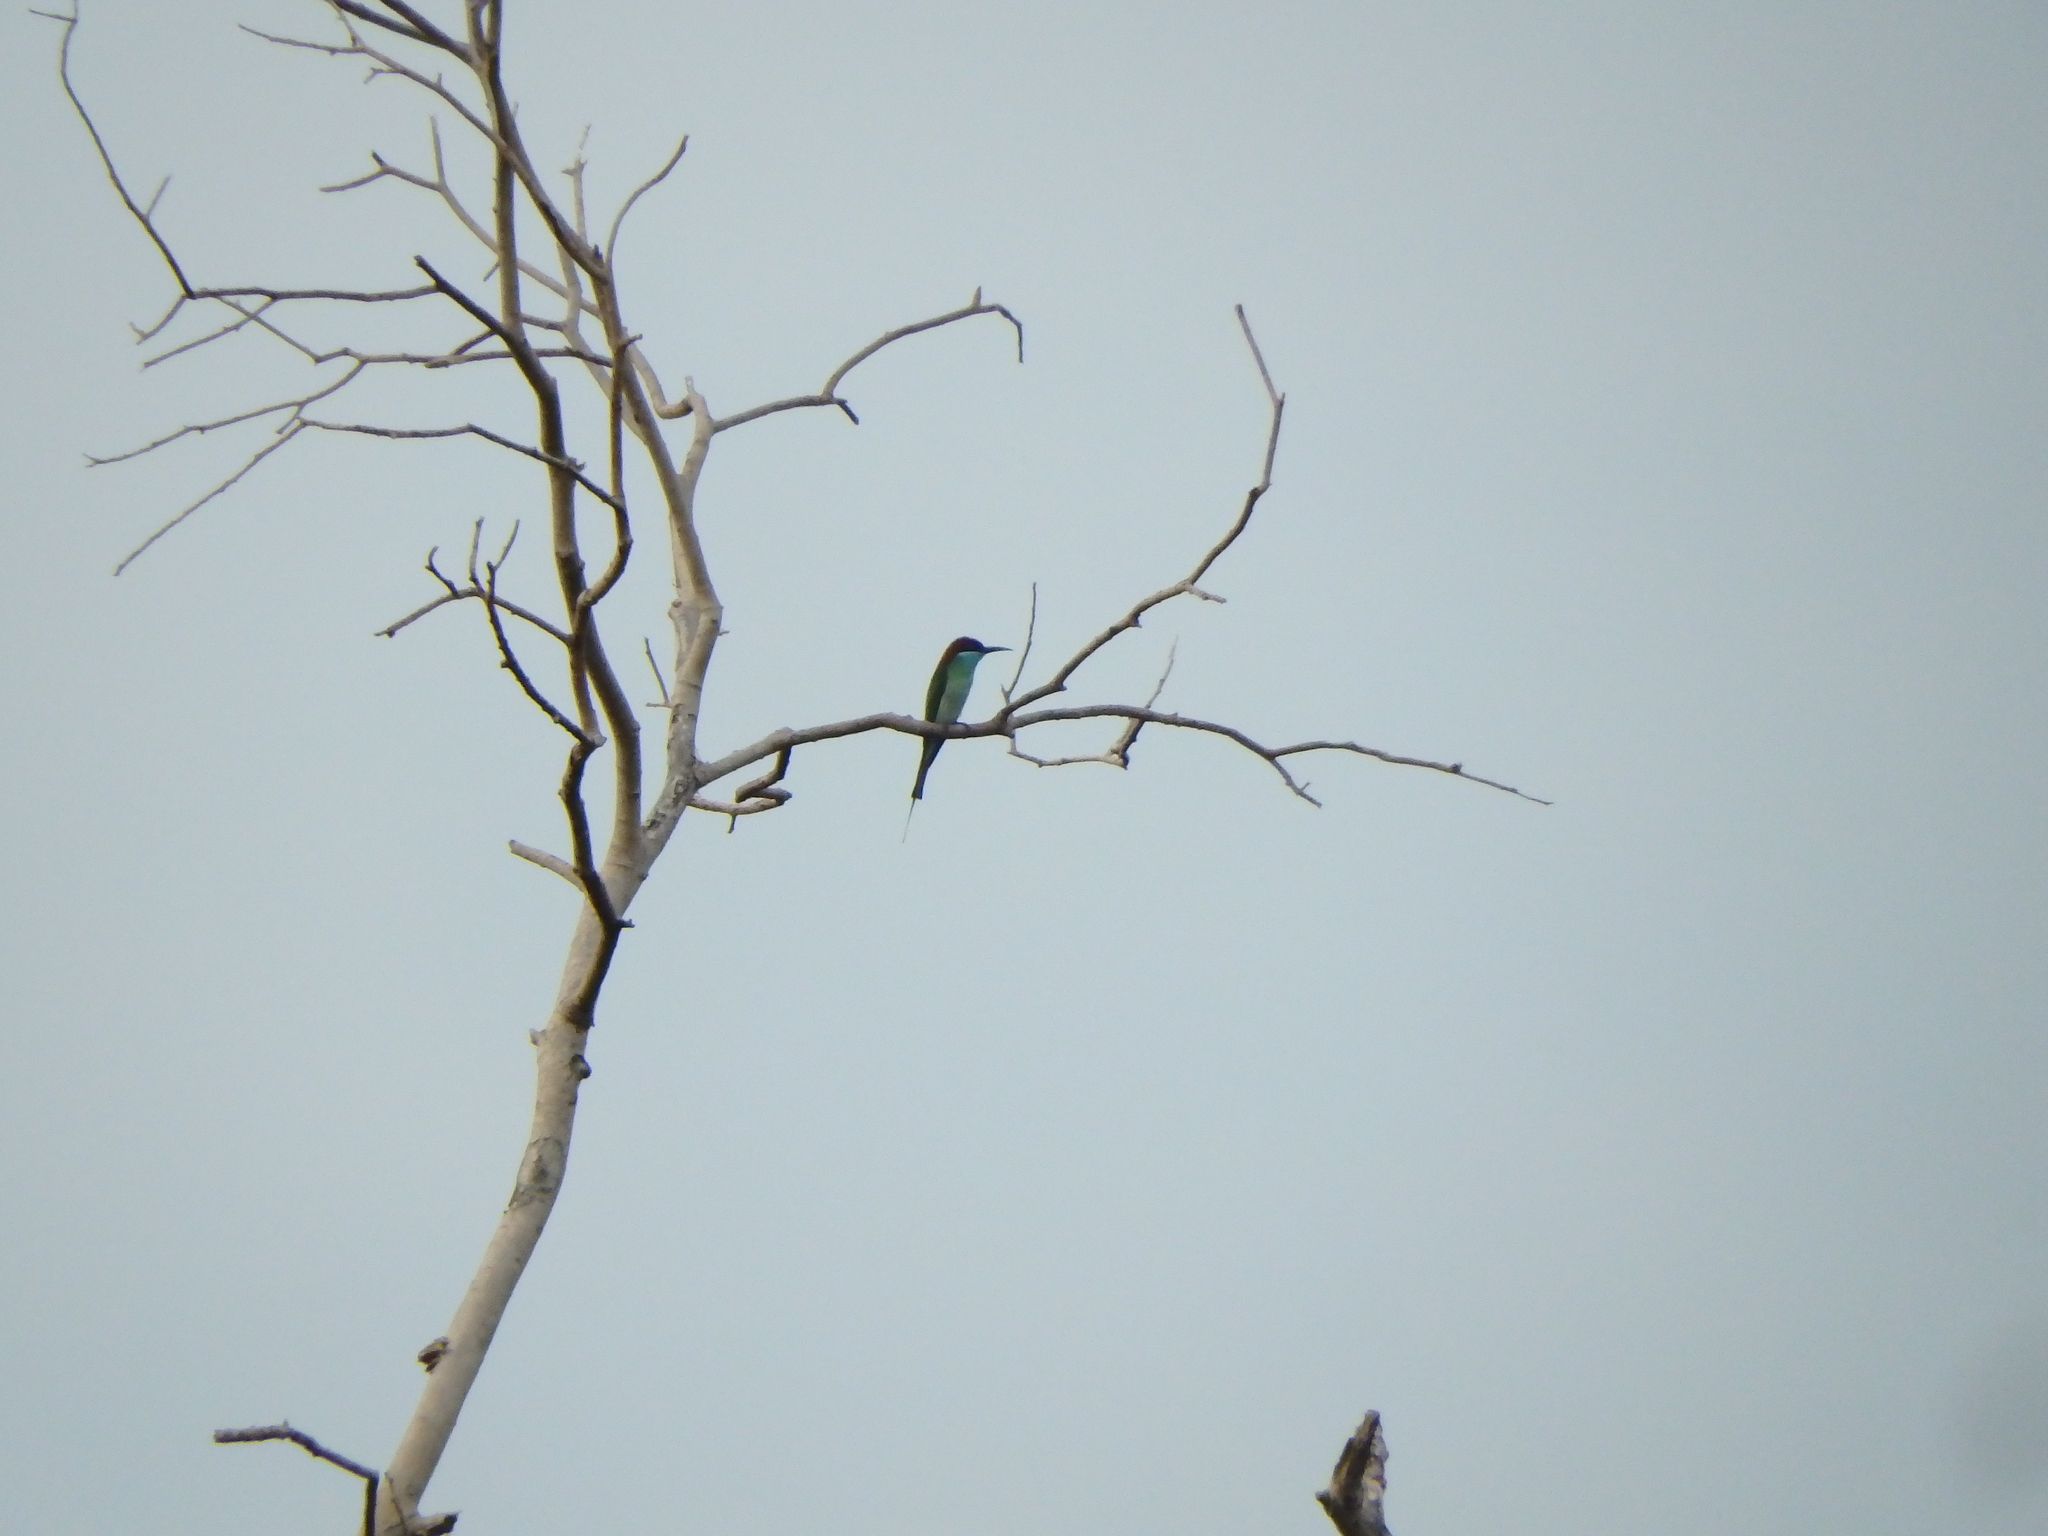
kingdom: Animalia
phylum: Chordata
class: Aves
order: Coraciiformes
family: Meropidae
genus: Merops
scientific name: Merops viridis
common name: Blue-throated bee-eater
